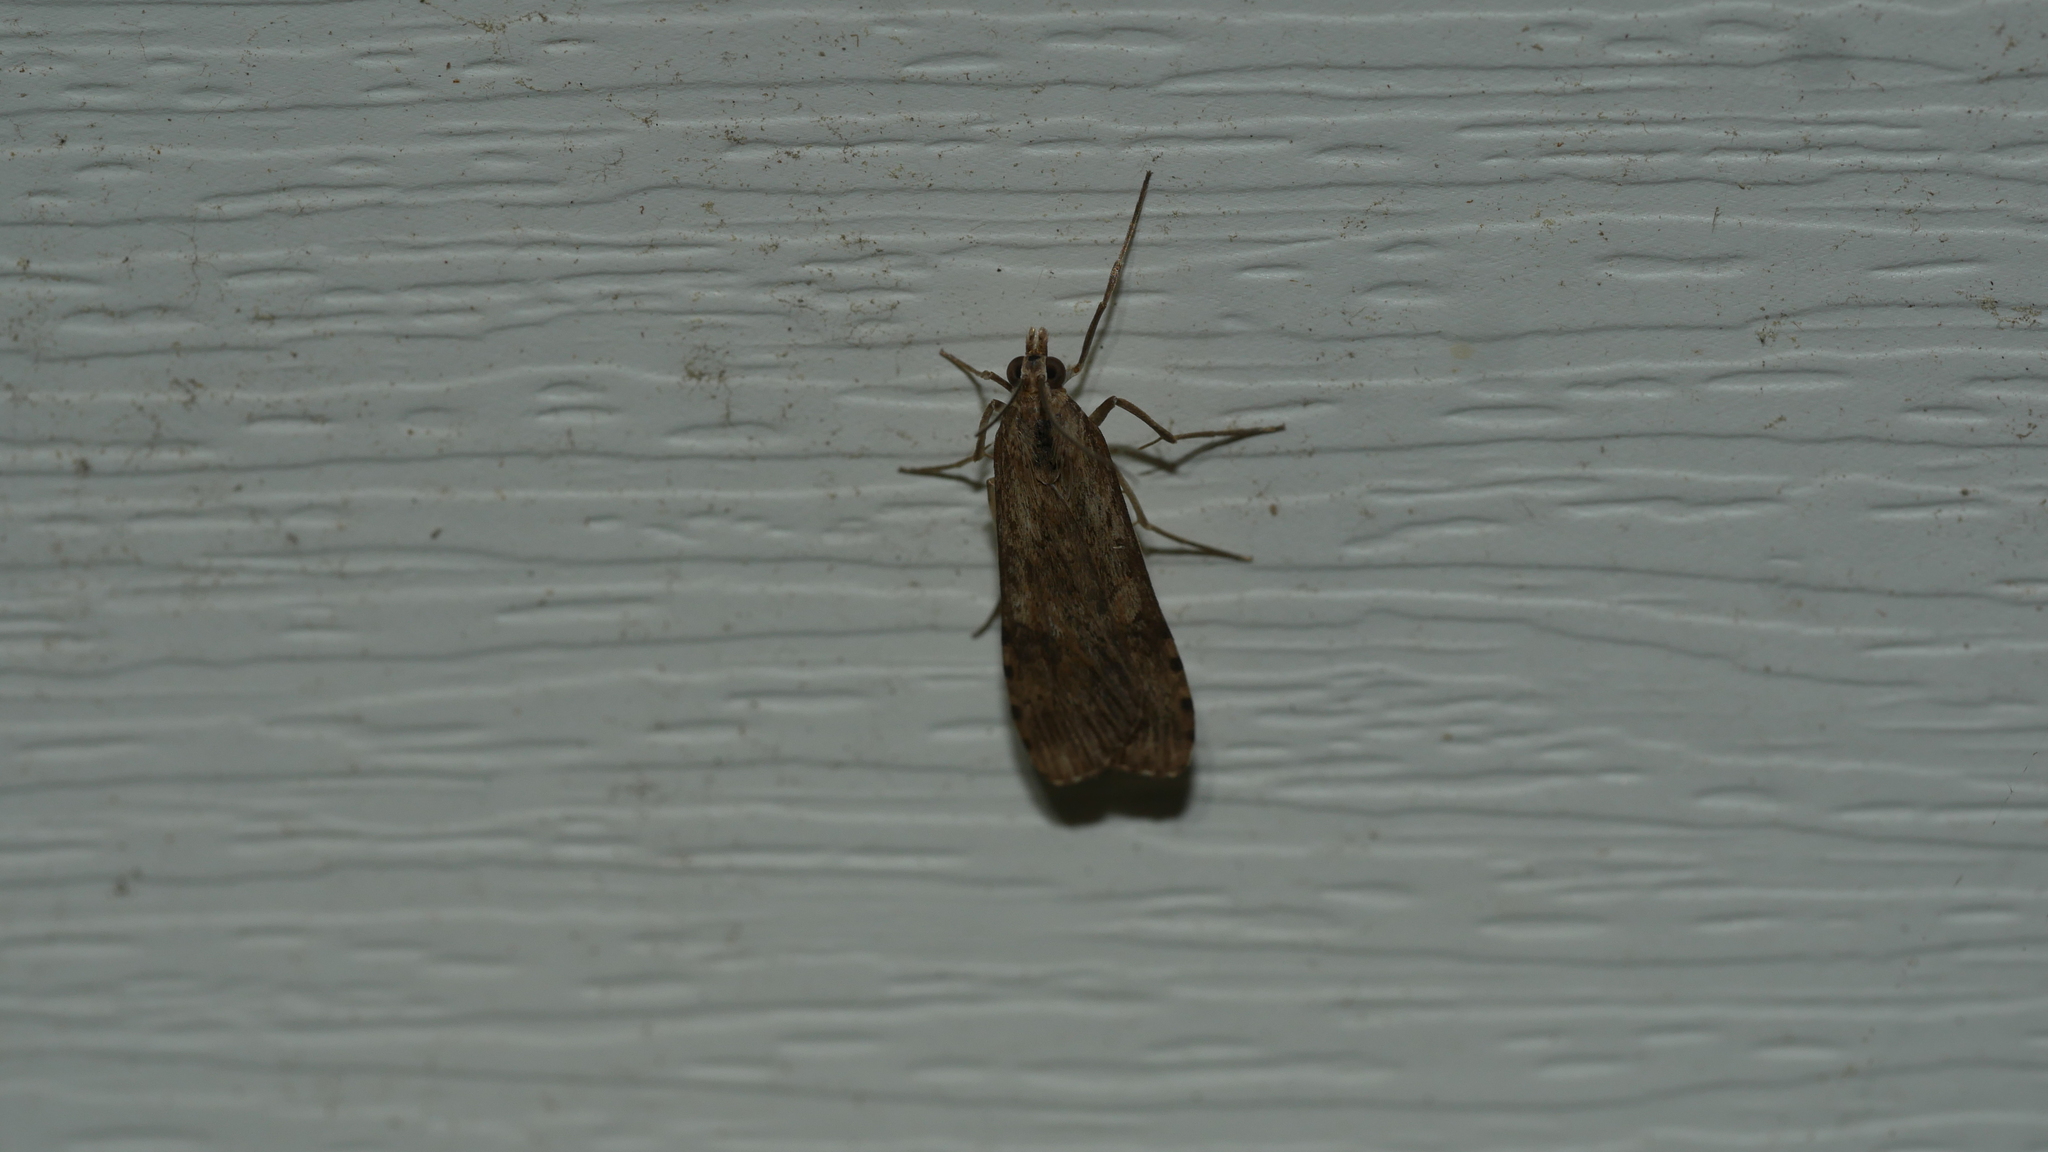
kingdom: Animalia
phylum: Arthropoda
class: Insecta
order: Lepidoptera
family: Crambidae
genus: Nomophila
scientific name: Nomophila nearctica
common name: American rush veneer
